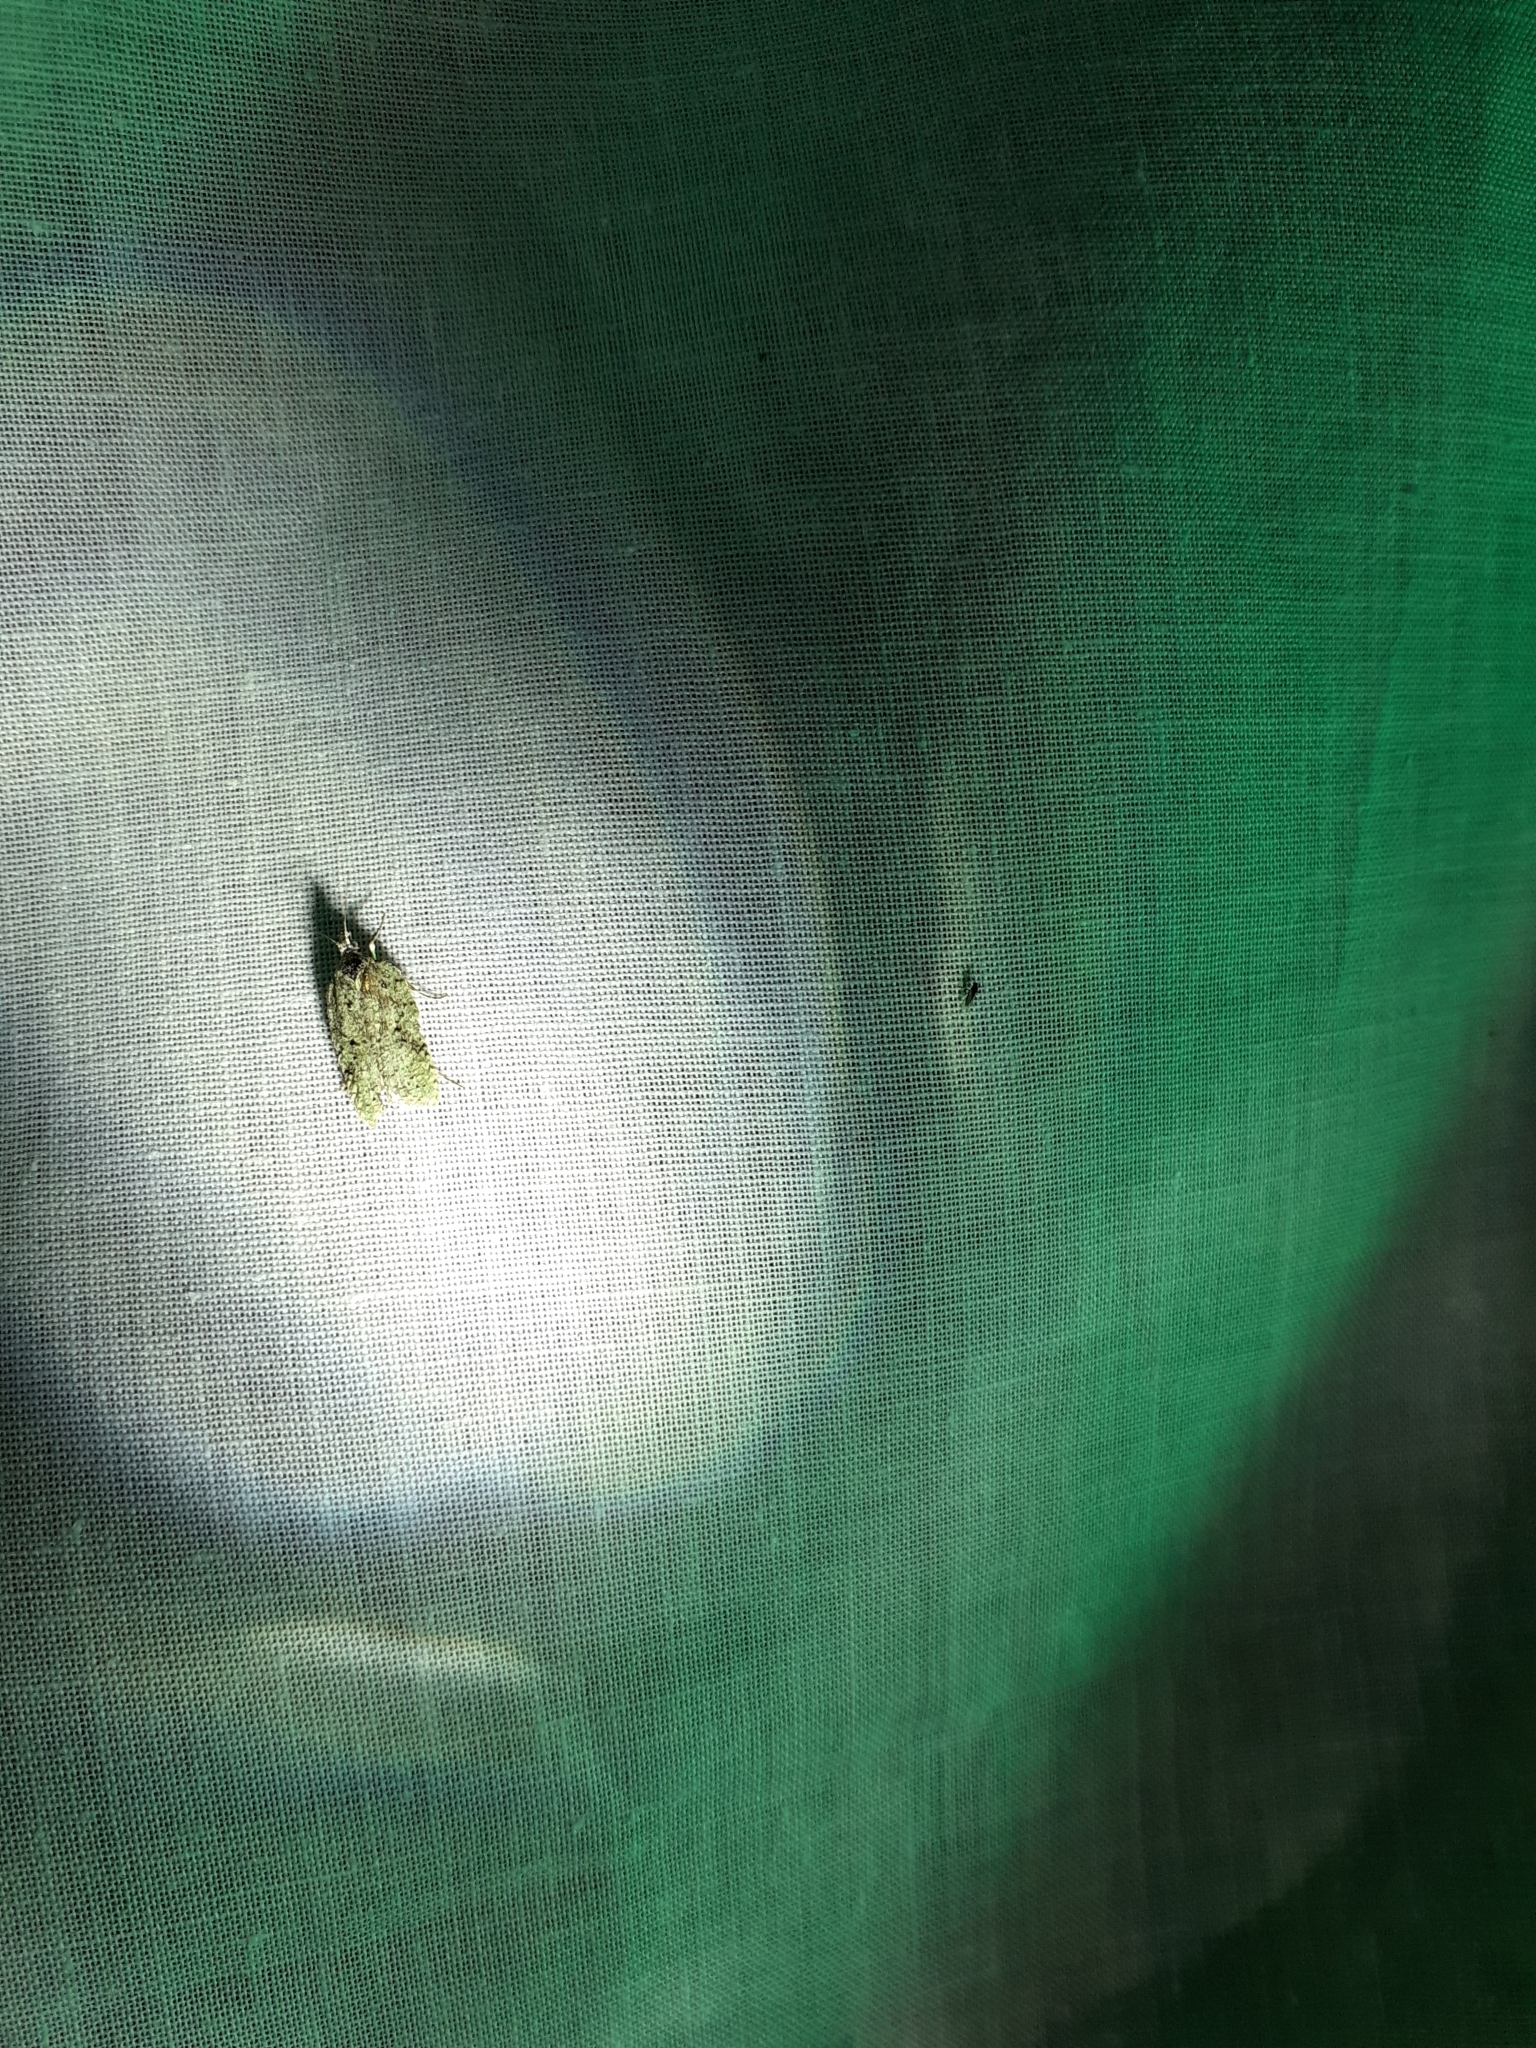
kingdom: Animalia
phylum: Arthropoda
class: Insecta
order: Lepidoptera
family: Tortricidae
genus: Acleris
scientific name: Acleris literana
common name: Lichen button
